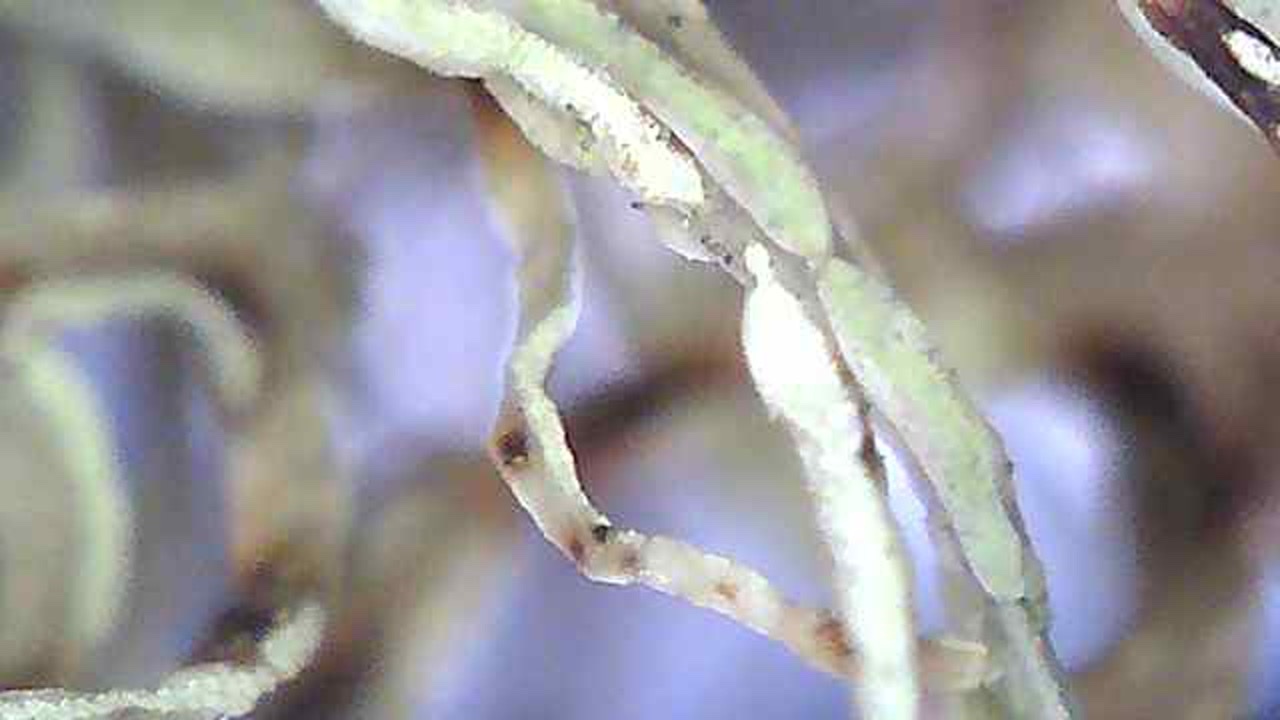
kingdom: Fungi
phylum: Ascomycota
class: Lecanoromycetes
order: Lecanorales
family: Ramalinaceae
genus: Ramalina
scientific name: Ramalina farinacea
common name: Farinose cartilage lichen
